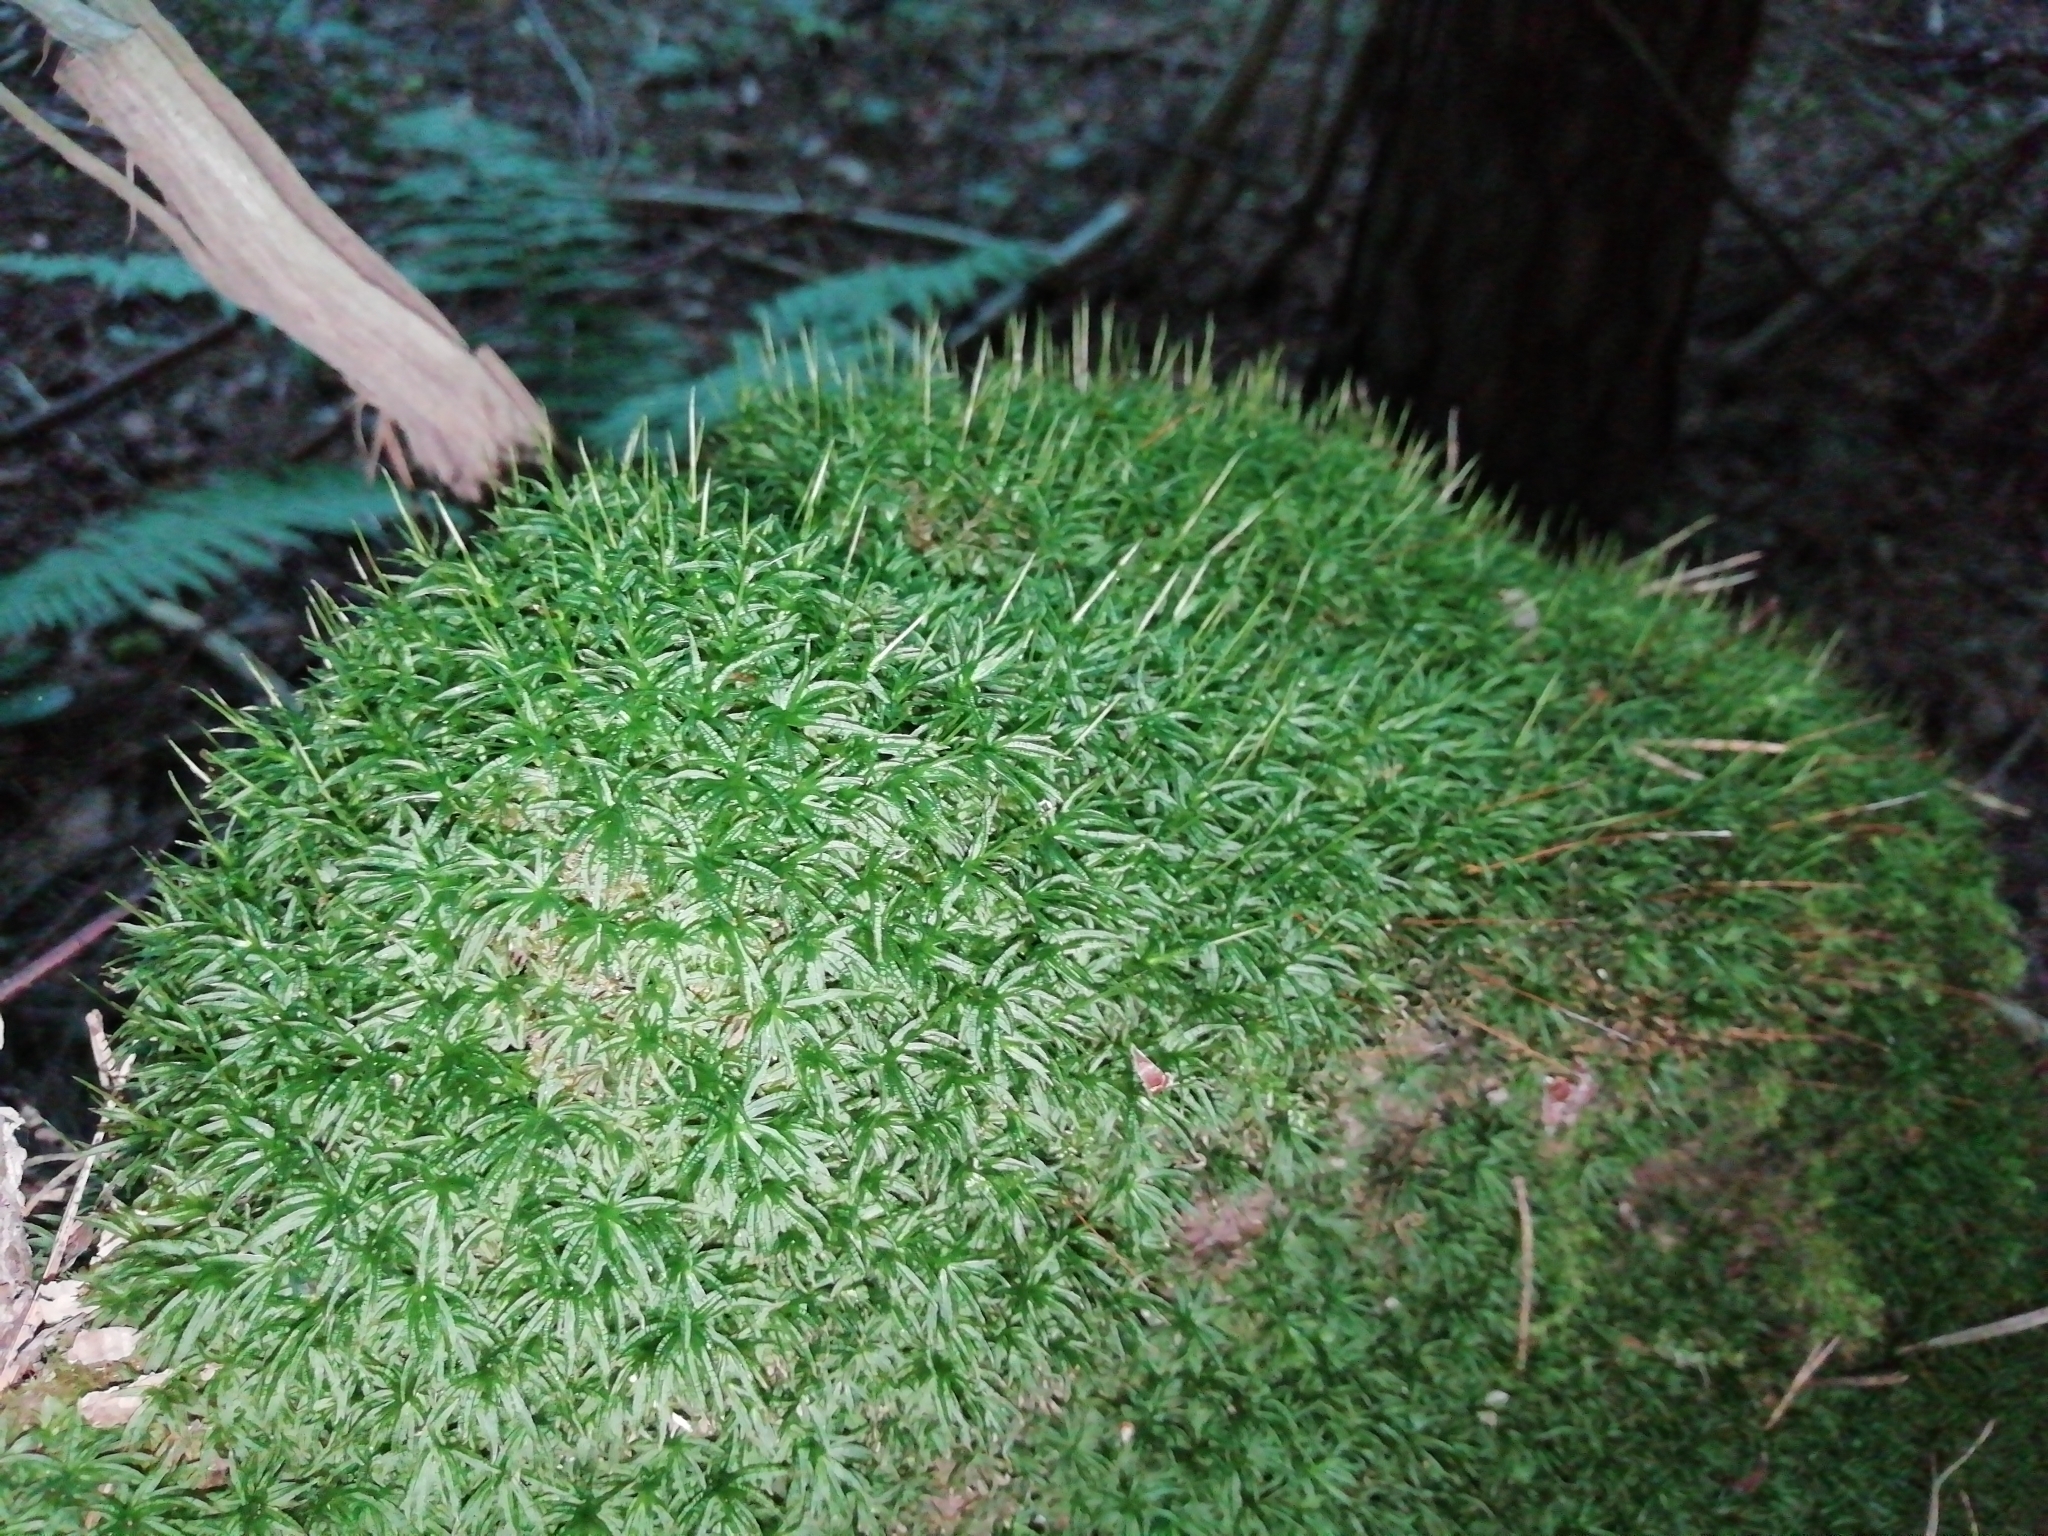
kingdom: Plantae
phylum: Bryophyta
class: Polytrichopsida
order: Polytrichales
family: Polytrichaceae
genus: Atrichum
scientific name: Atrichum undulatum
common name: Common smoothcap
